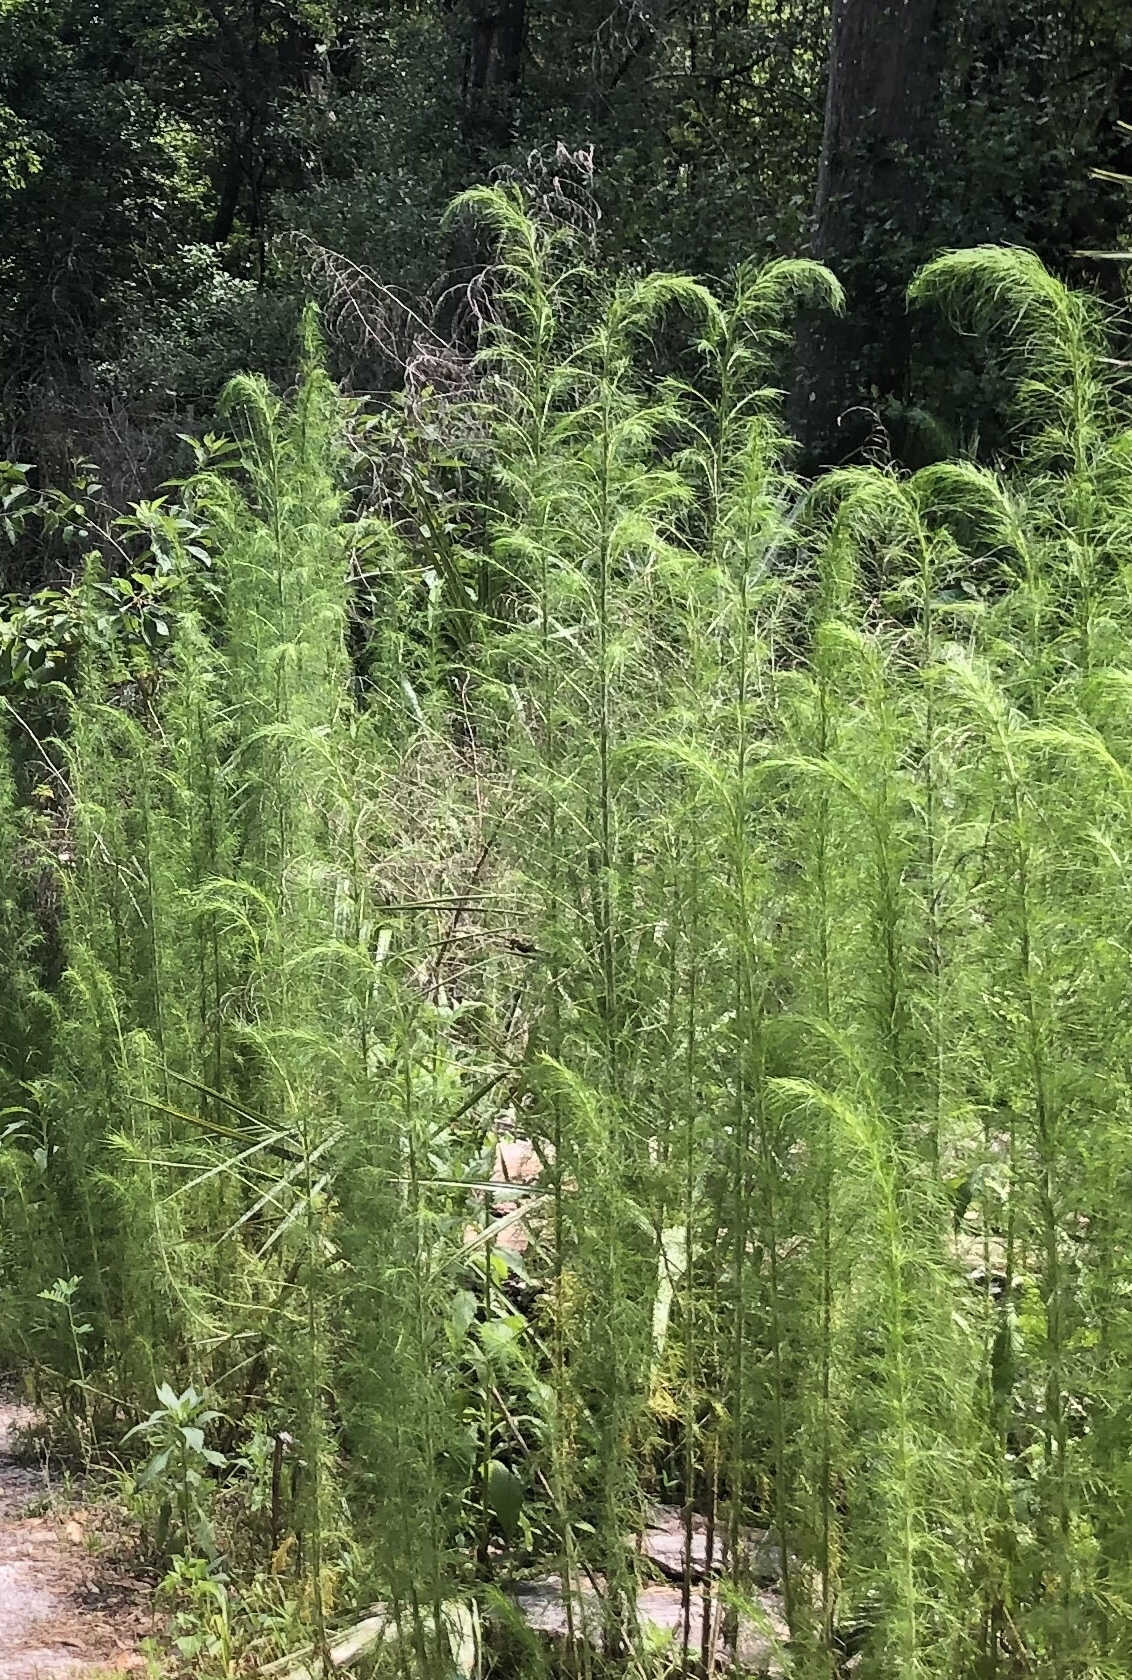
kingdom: Plantae
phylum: Tracheophyta
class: Magnoliopsida
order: Asterales
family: Asteraceae
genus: Eupatorium
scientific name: Eupatorium capillifolium
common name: Dog-fennel
